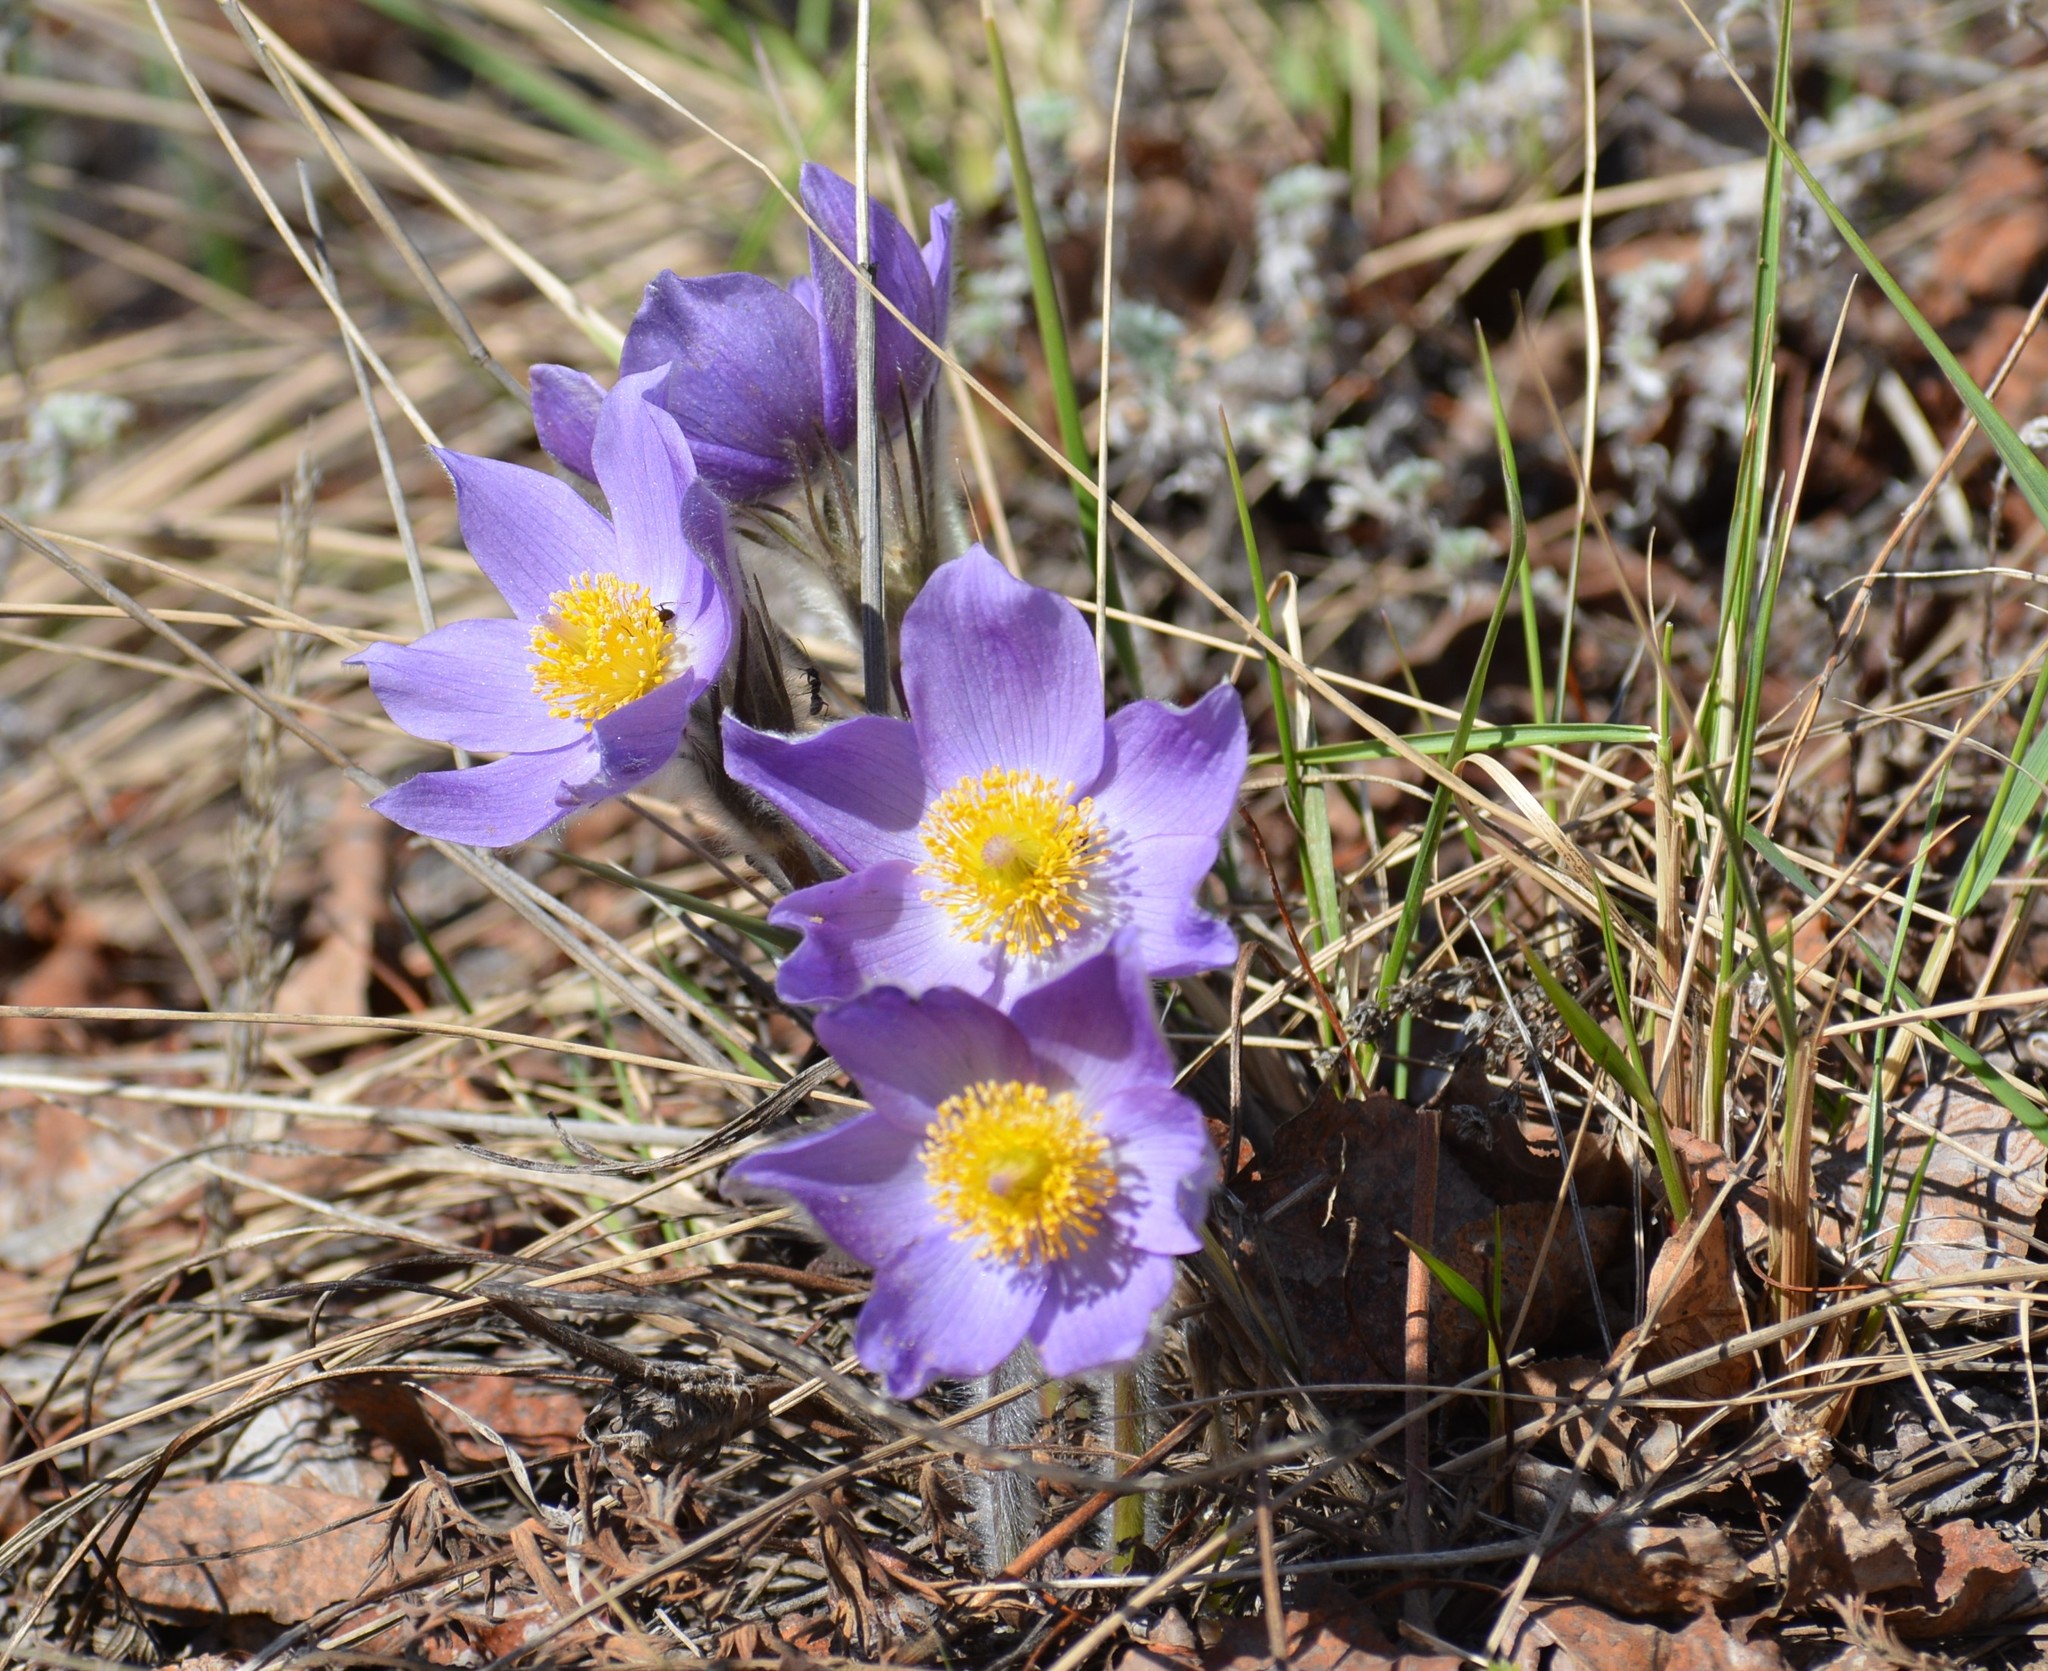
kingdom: Plantae
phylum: Tracheophyta
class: Magnoliopsida
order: Ranunculales
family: Ranunculaceae
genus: Pulsatilla
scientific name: Pulsatilla nuttalliana
